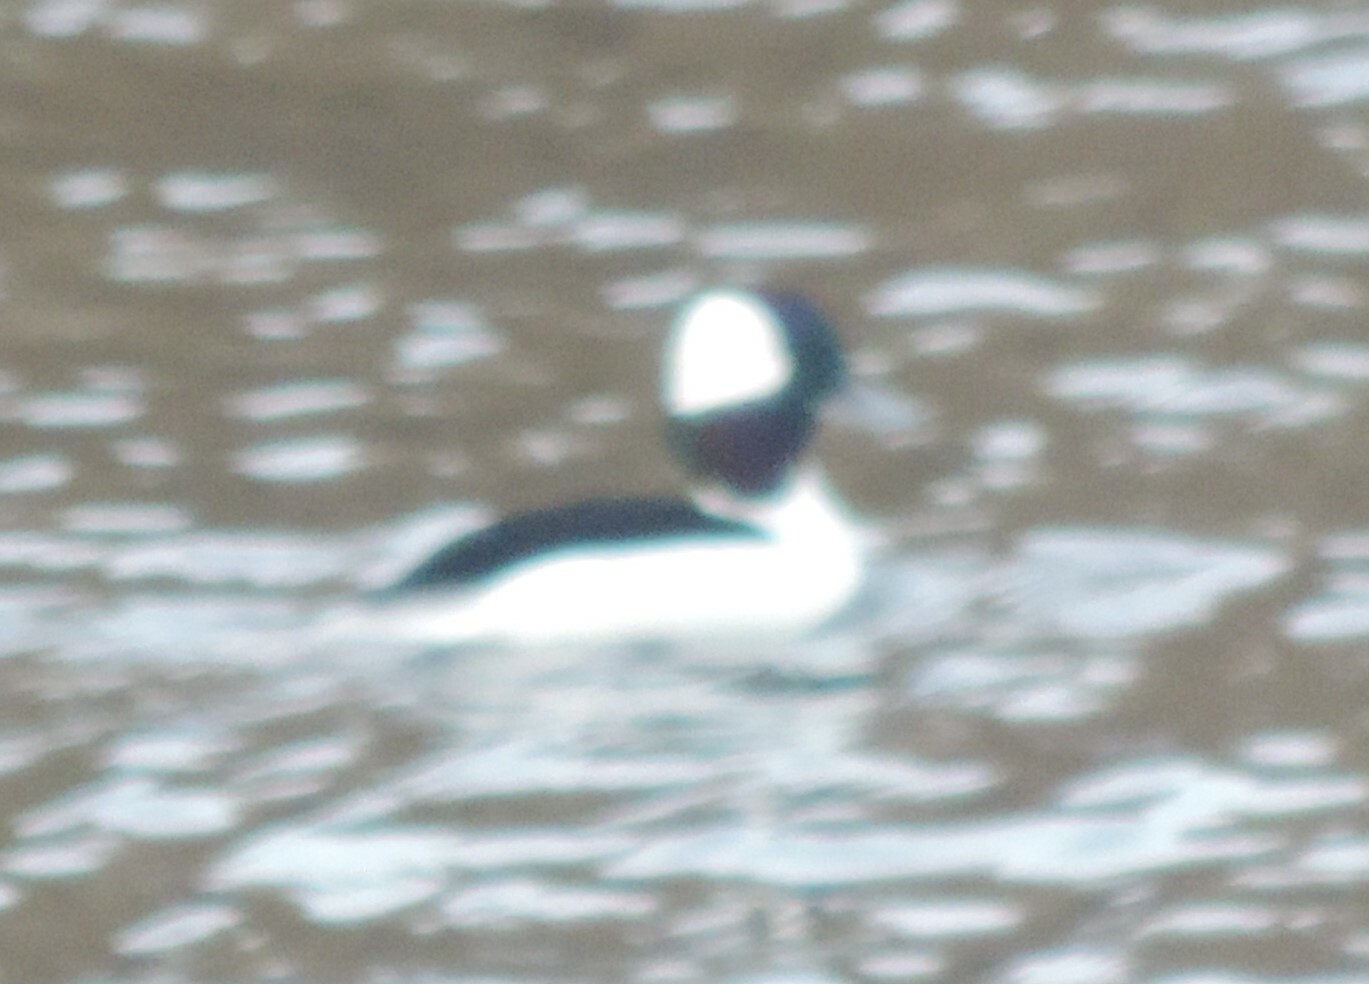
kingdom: Animalia
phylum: Chordata
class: Aves
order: Anseriformes
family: Anatidae
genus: Bucephala
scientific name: Bucephala albeola
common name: Bufflehead
